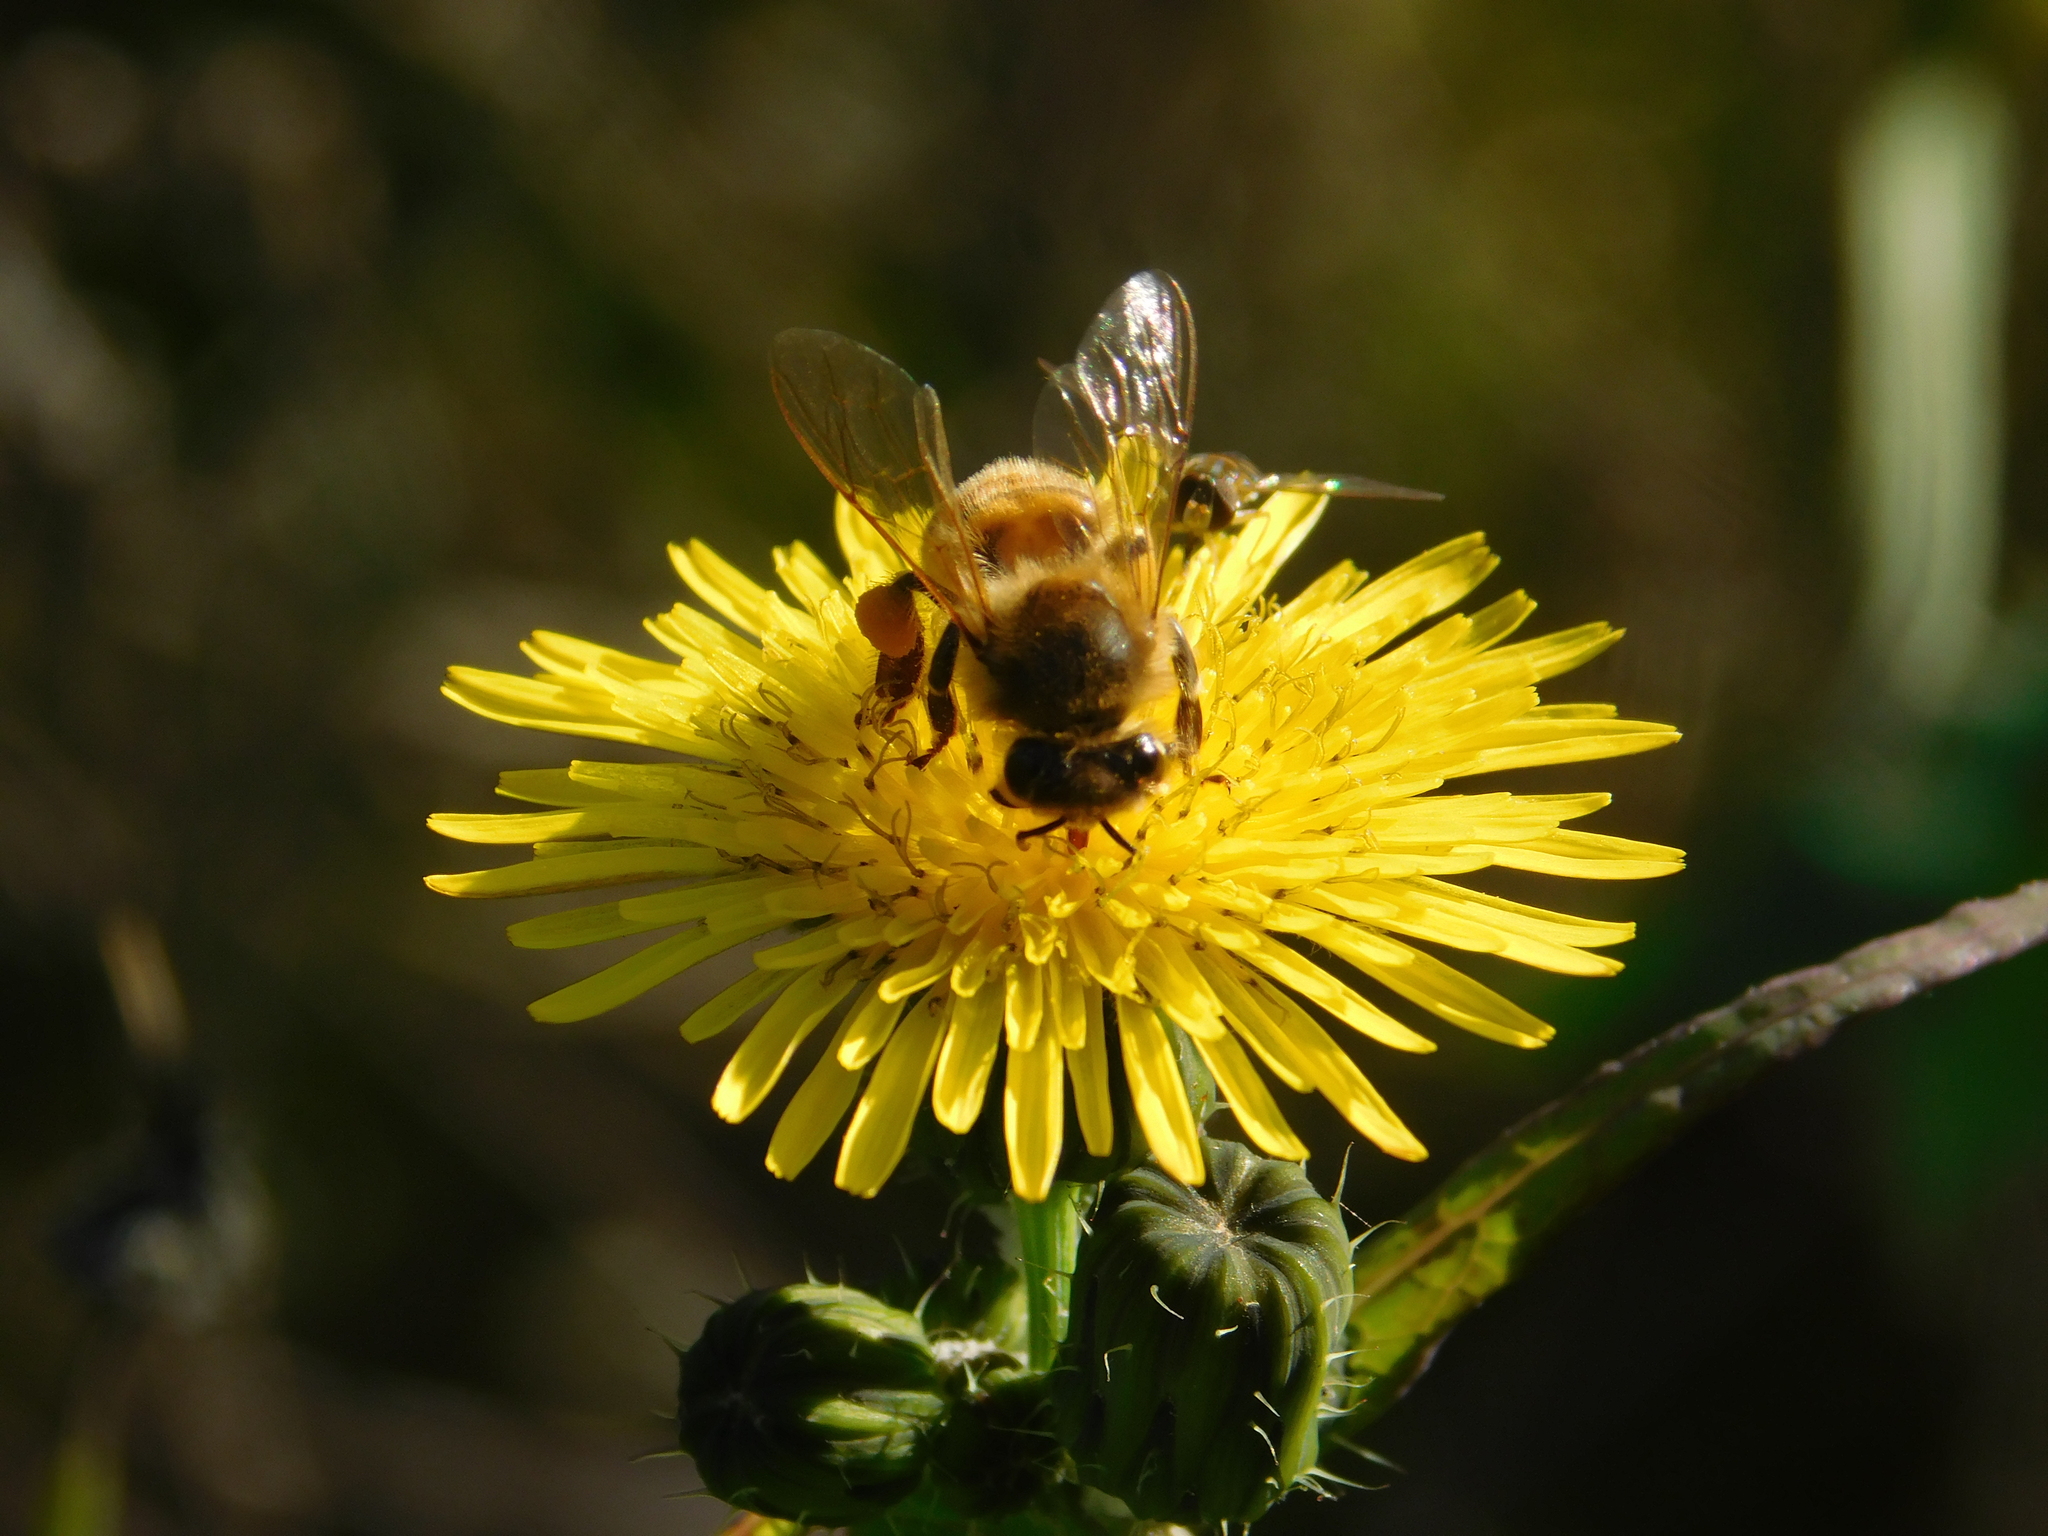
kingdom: Animalia
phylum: Arthropoda
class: Insecta
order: Hymenoptera
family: Apidae
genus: Apis
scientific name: Apis mellifera
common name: Honey bee
